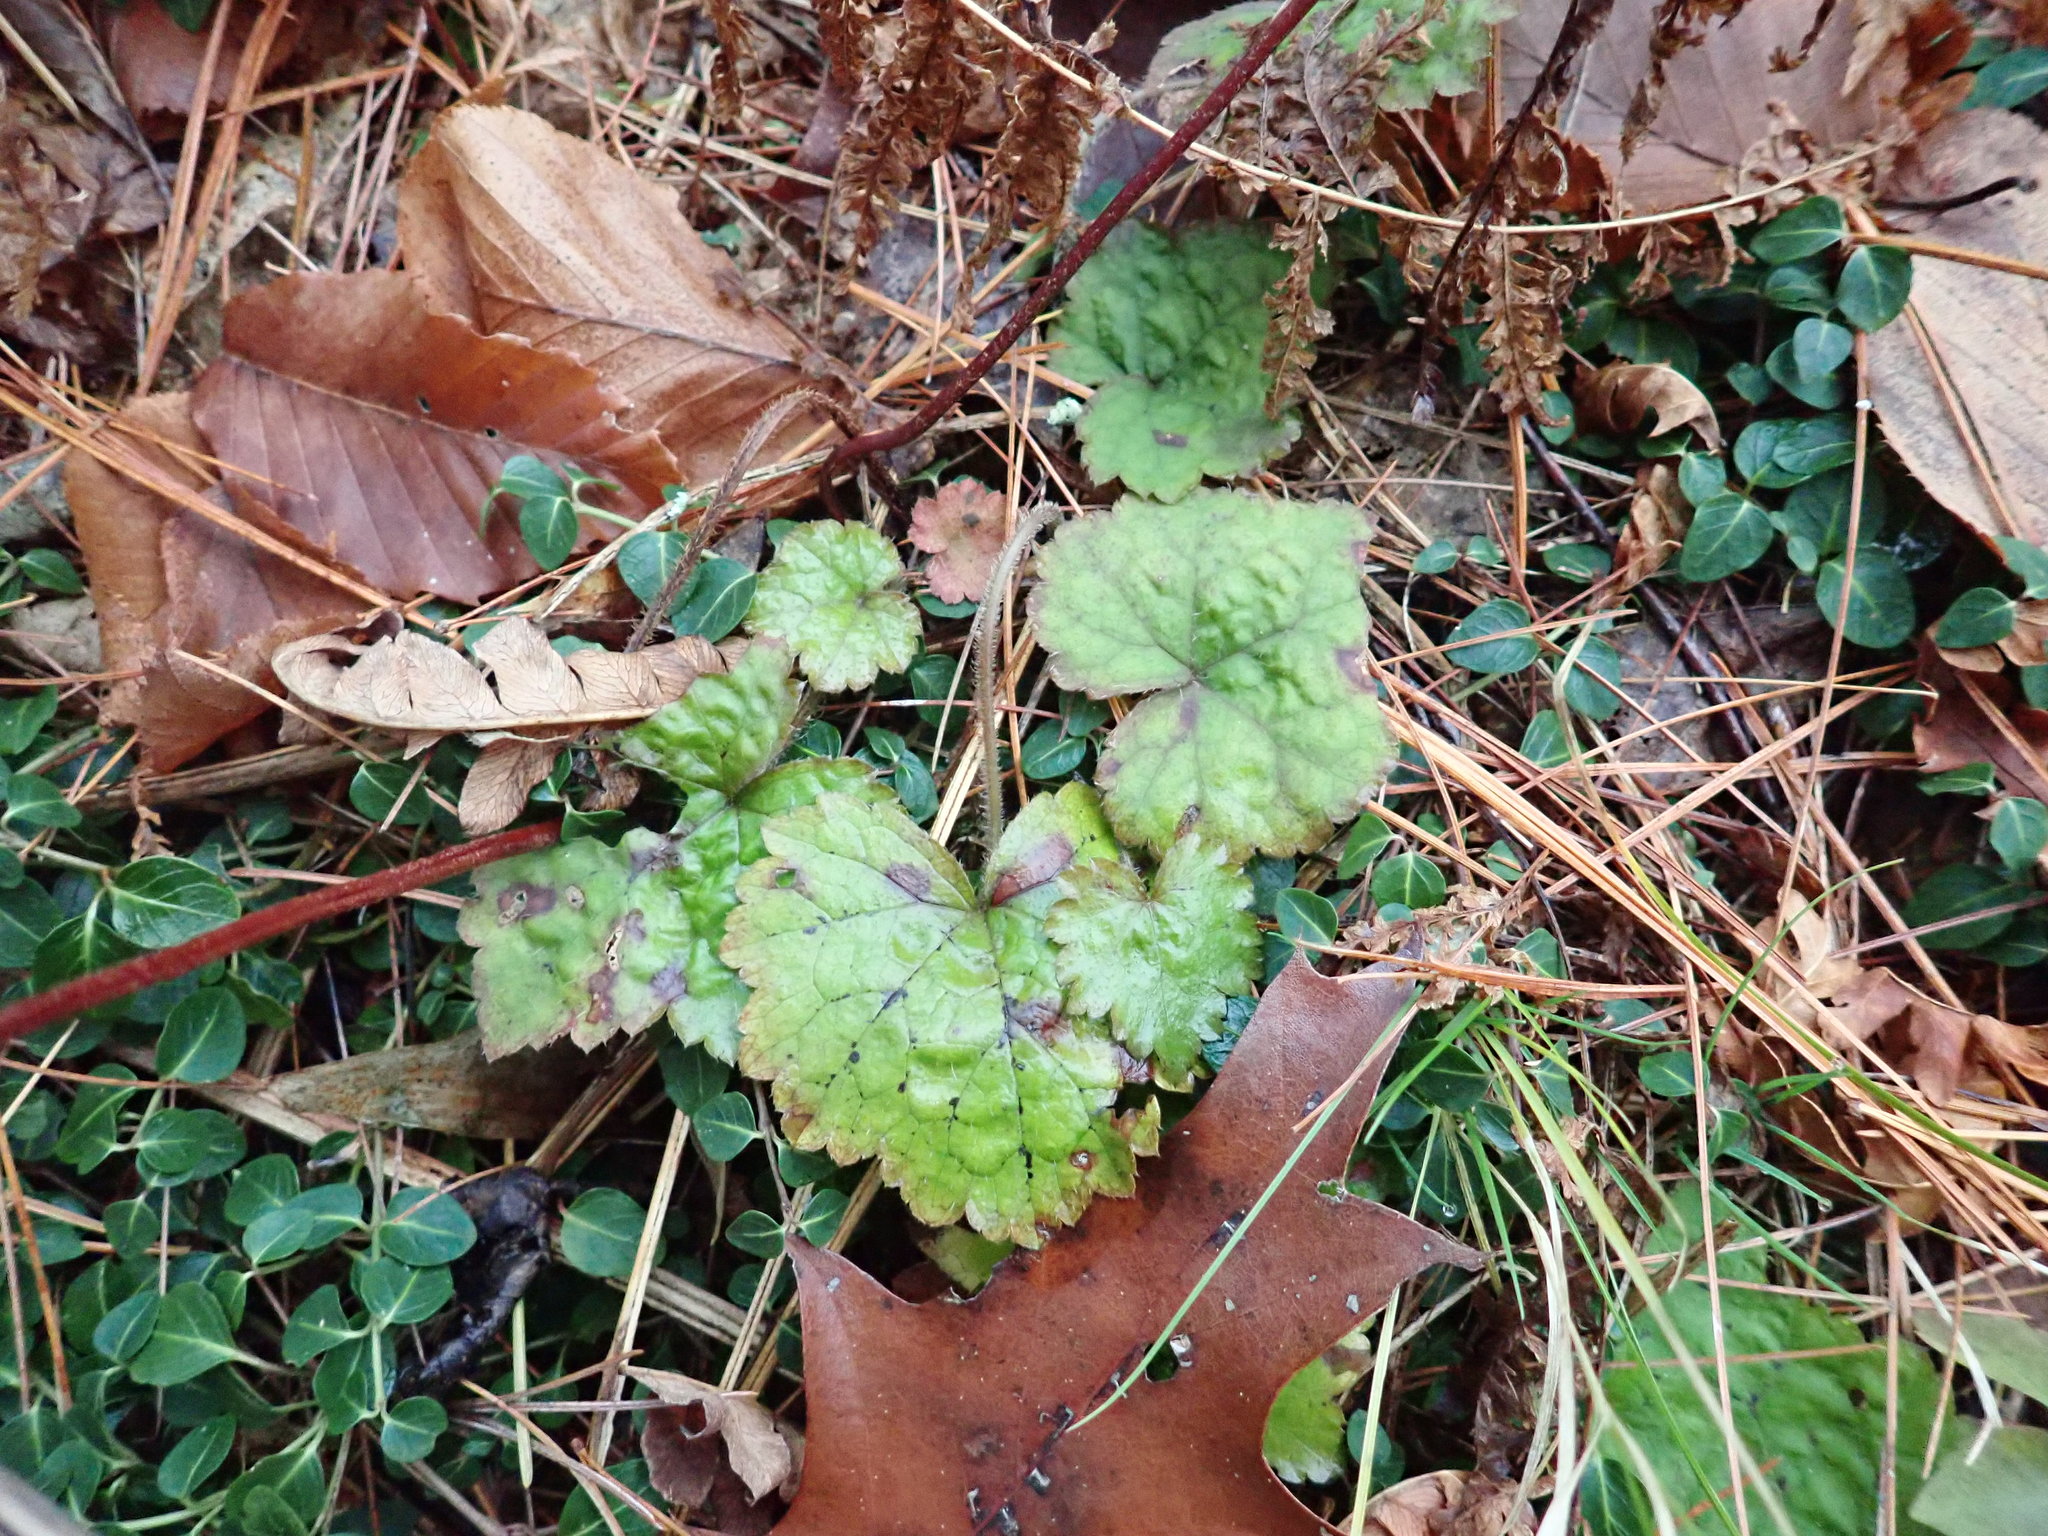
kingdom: Plantae
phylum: Tracheophyta
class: Magnoliopsida
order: Saxifragales
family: Saxifragaceae
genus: Tiarella
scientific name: Tiarella stolonifera
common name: Stoloniferous foamflower
